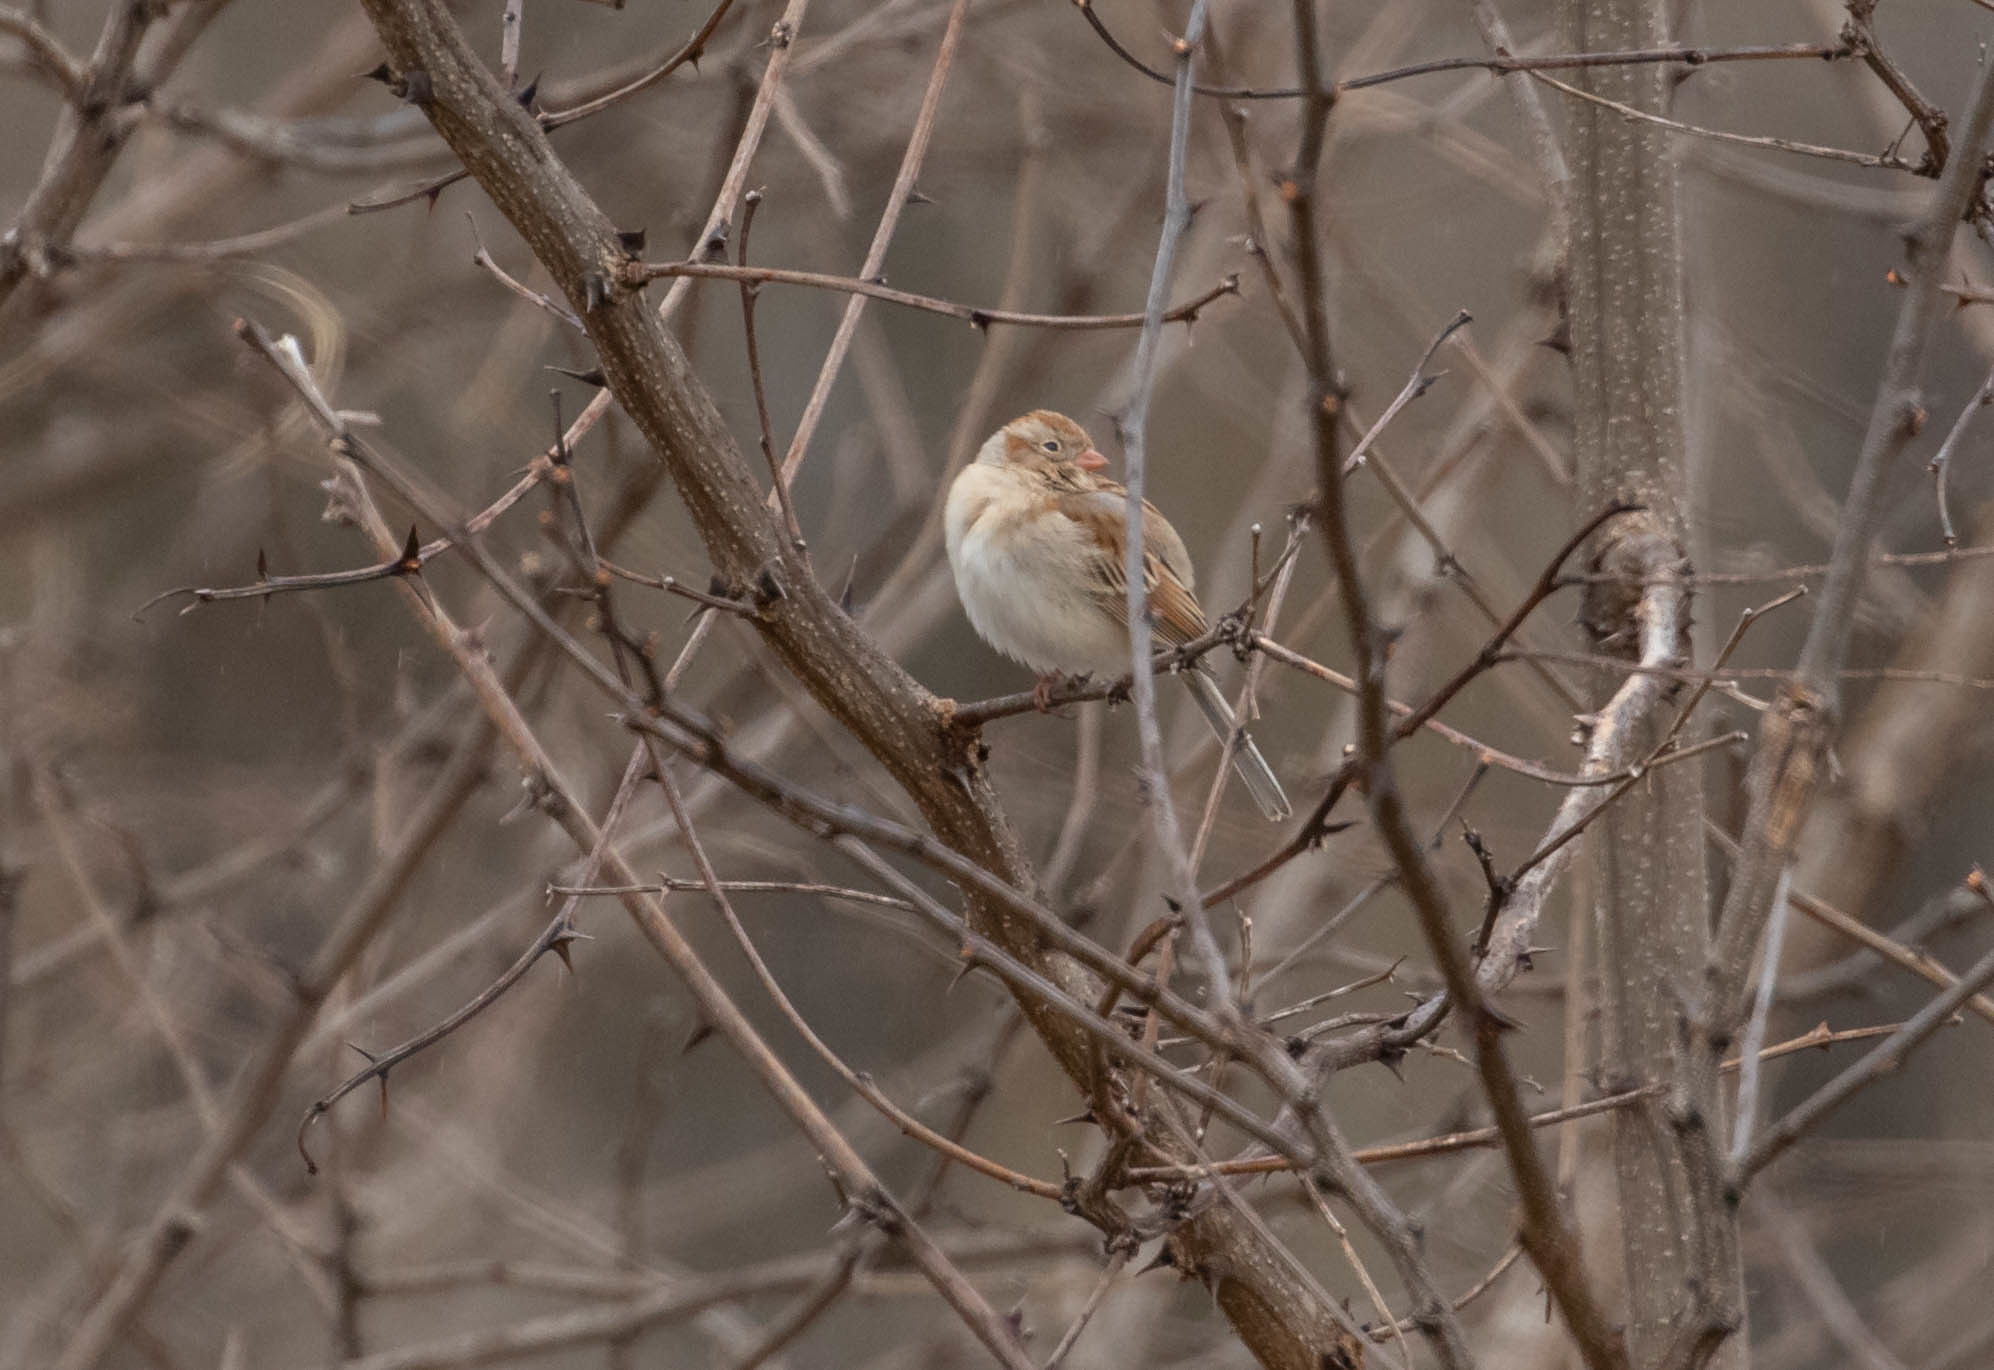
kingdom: Animalia
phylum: Chordata
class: Aves
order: Passeriformes
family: Passerellidae
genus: Spizella
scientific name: Spizella pusilla
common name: Field sparrow
